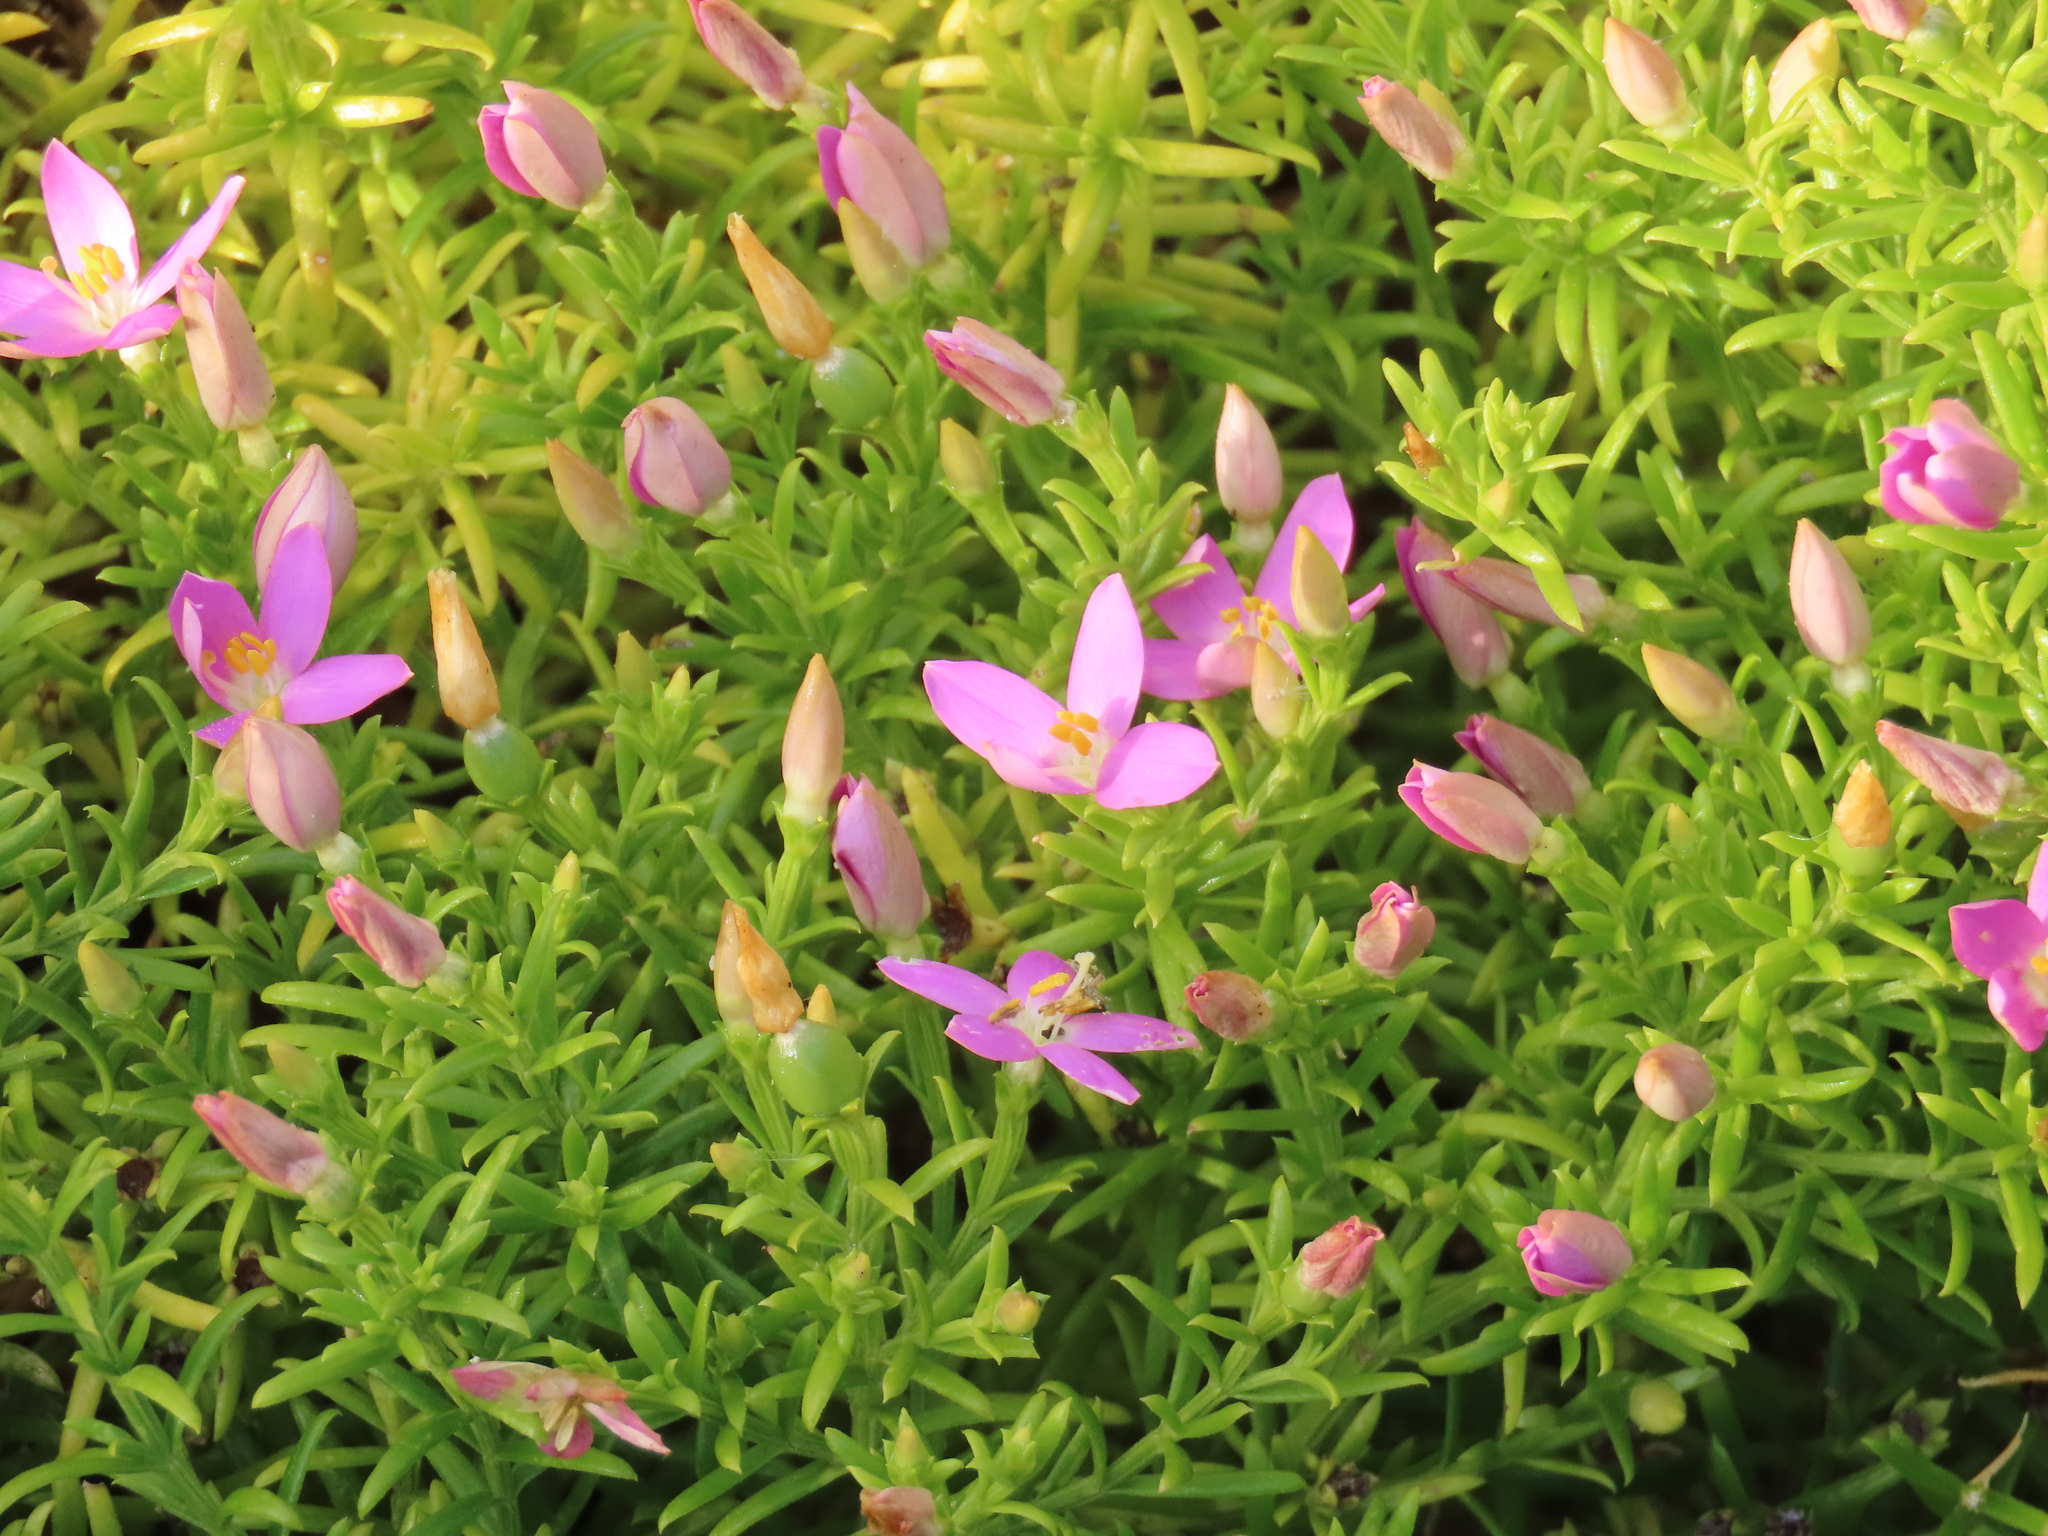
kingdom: Plantae
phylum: Tracheophyta
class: Magnoliopsida
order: Gentianales
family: Gentianaceae
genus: Chironia
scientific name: Chironia baccifera
